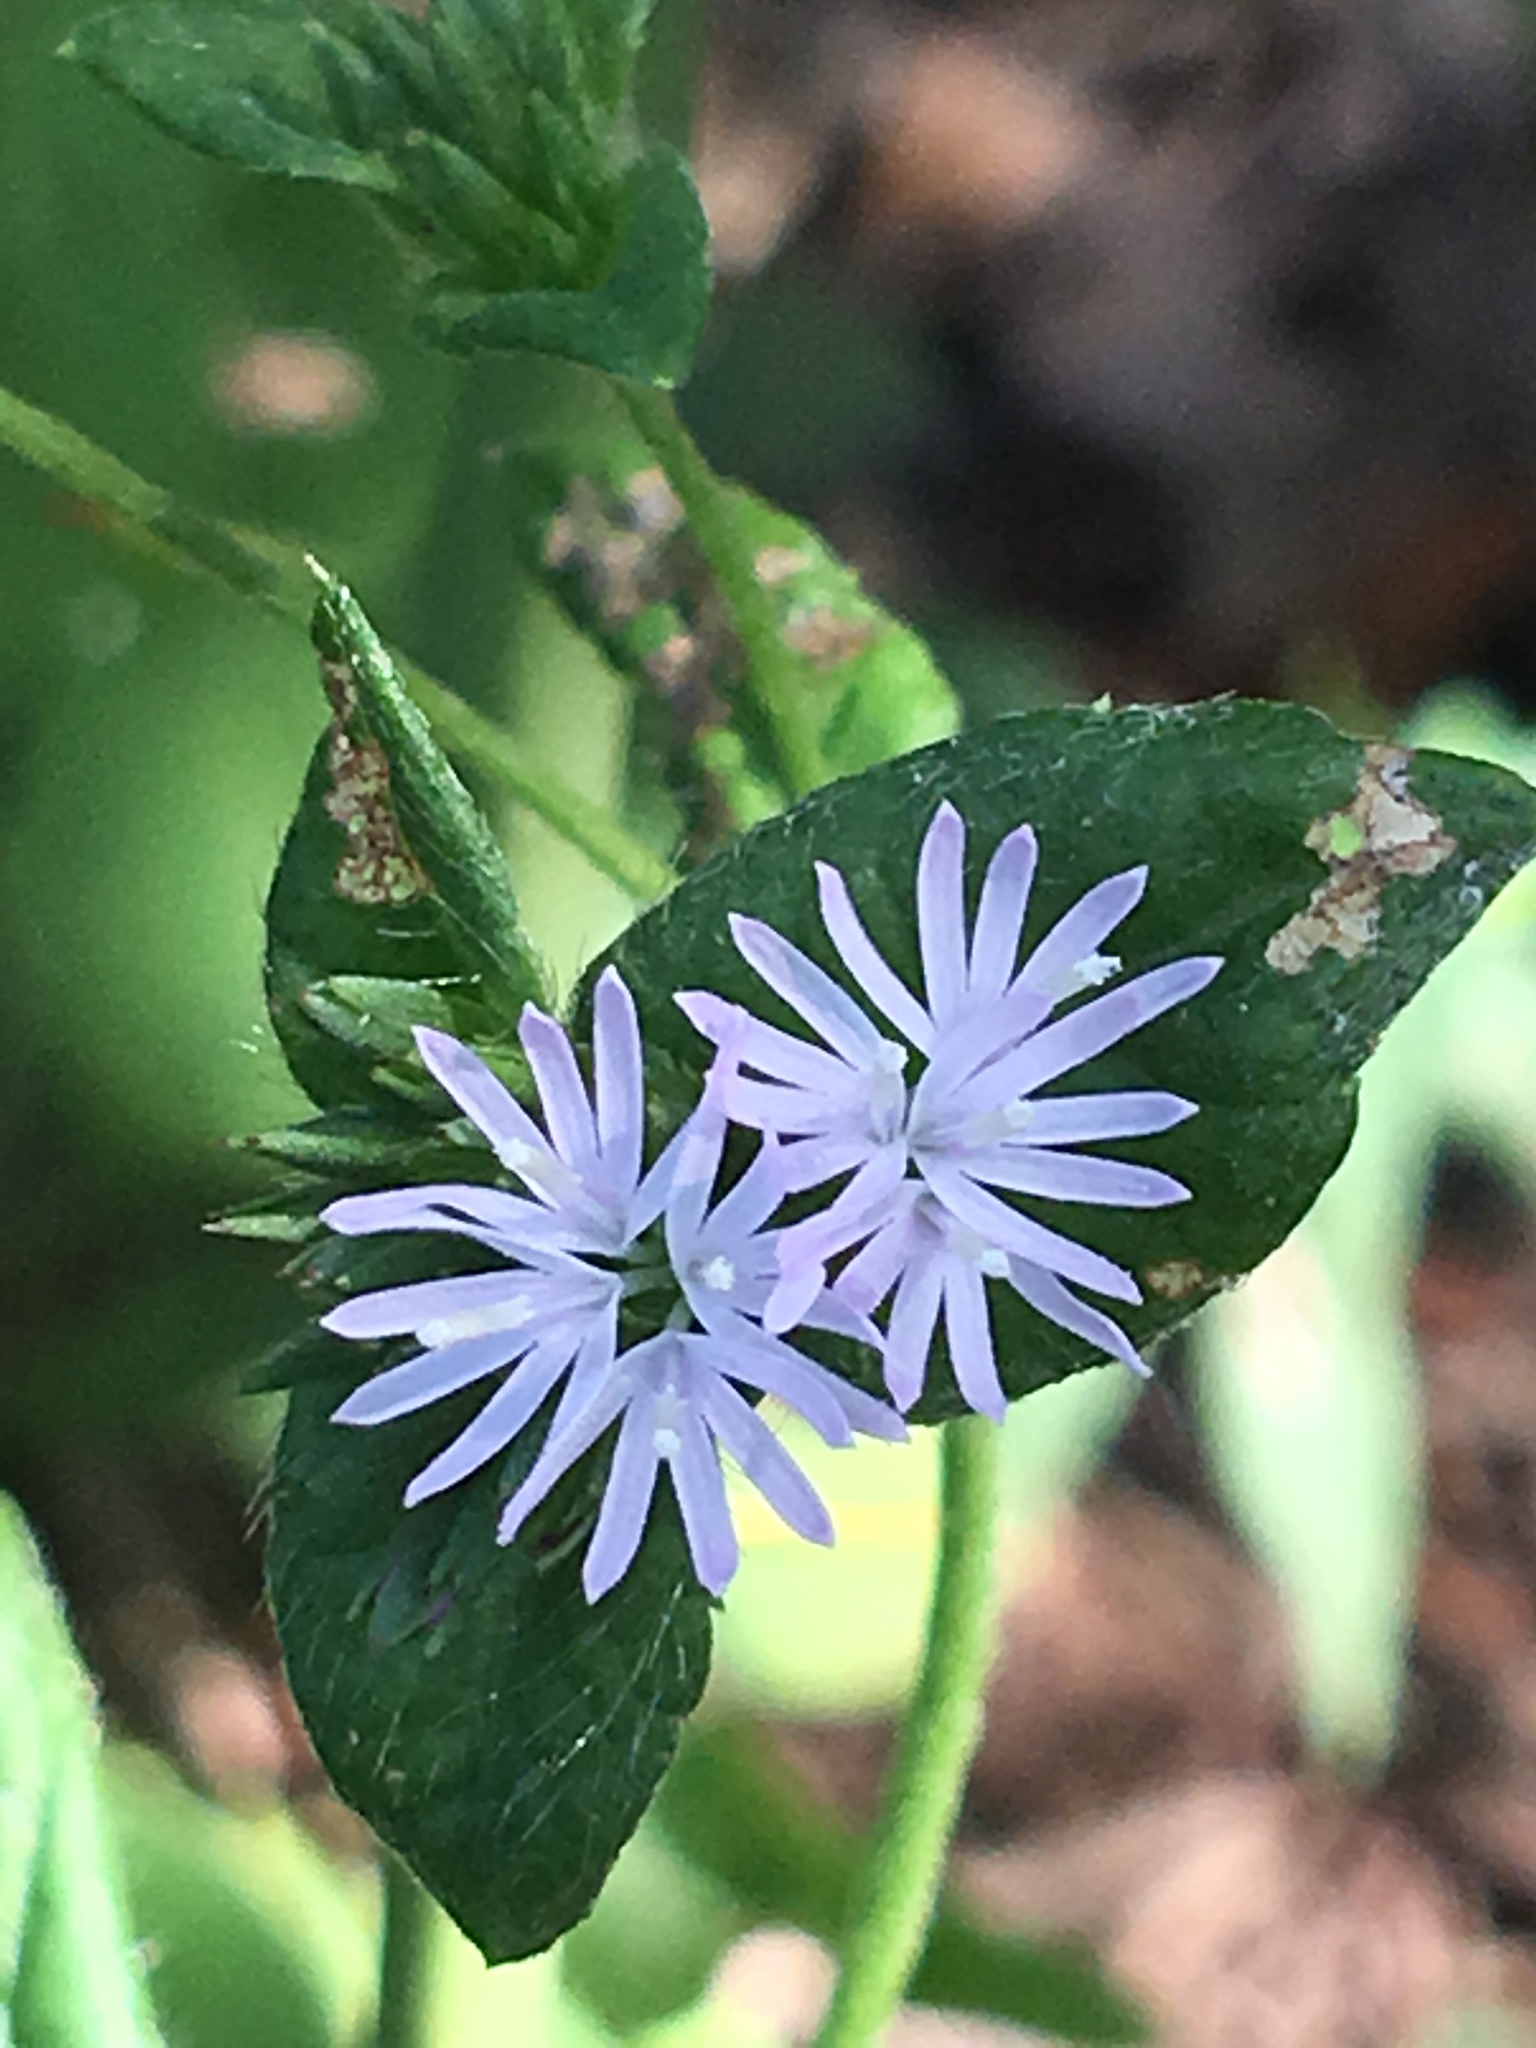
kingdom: Plantae
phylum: Tracheophyta
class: Magnoliopsida
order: Asterales
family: Asteraceae
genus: Elephantopus
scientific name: Elephantopus carolinianus
